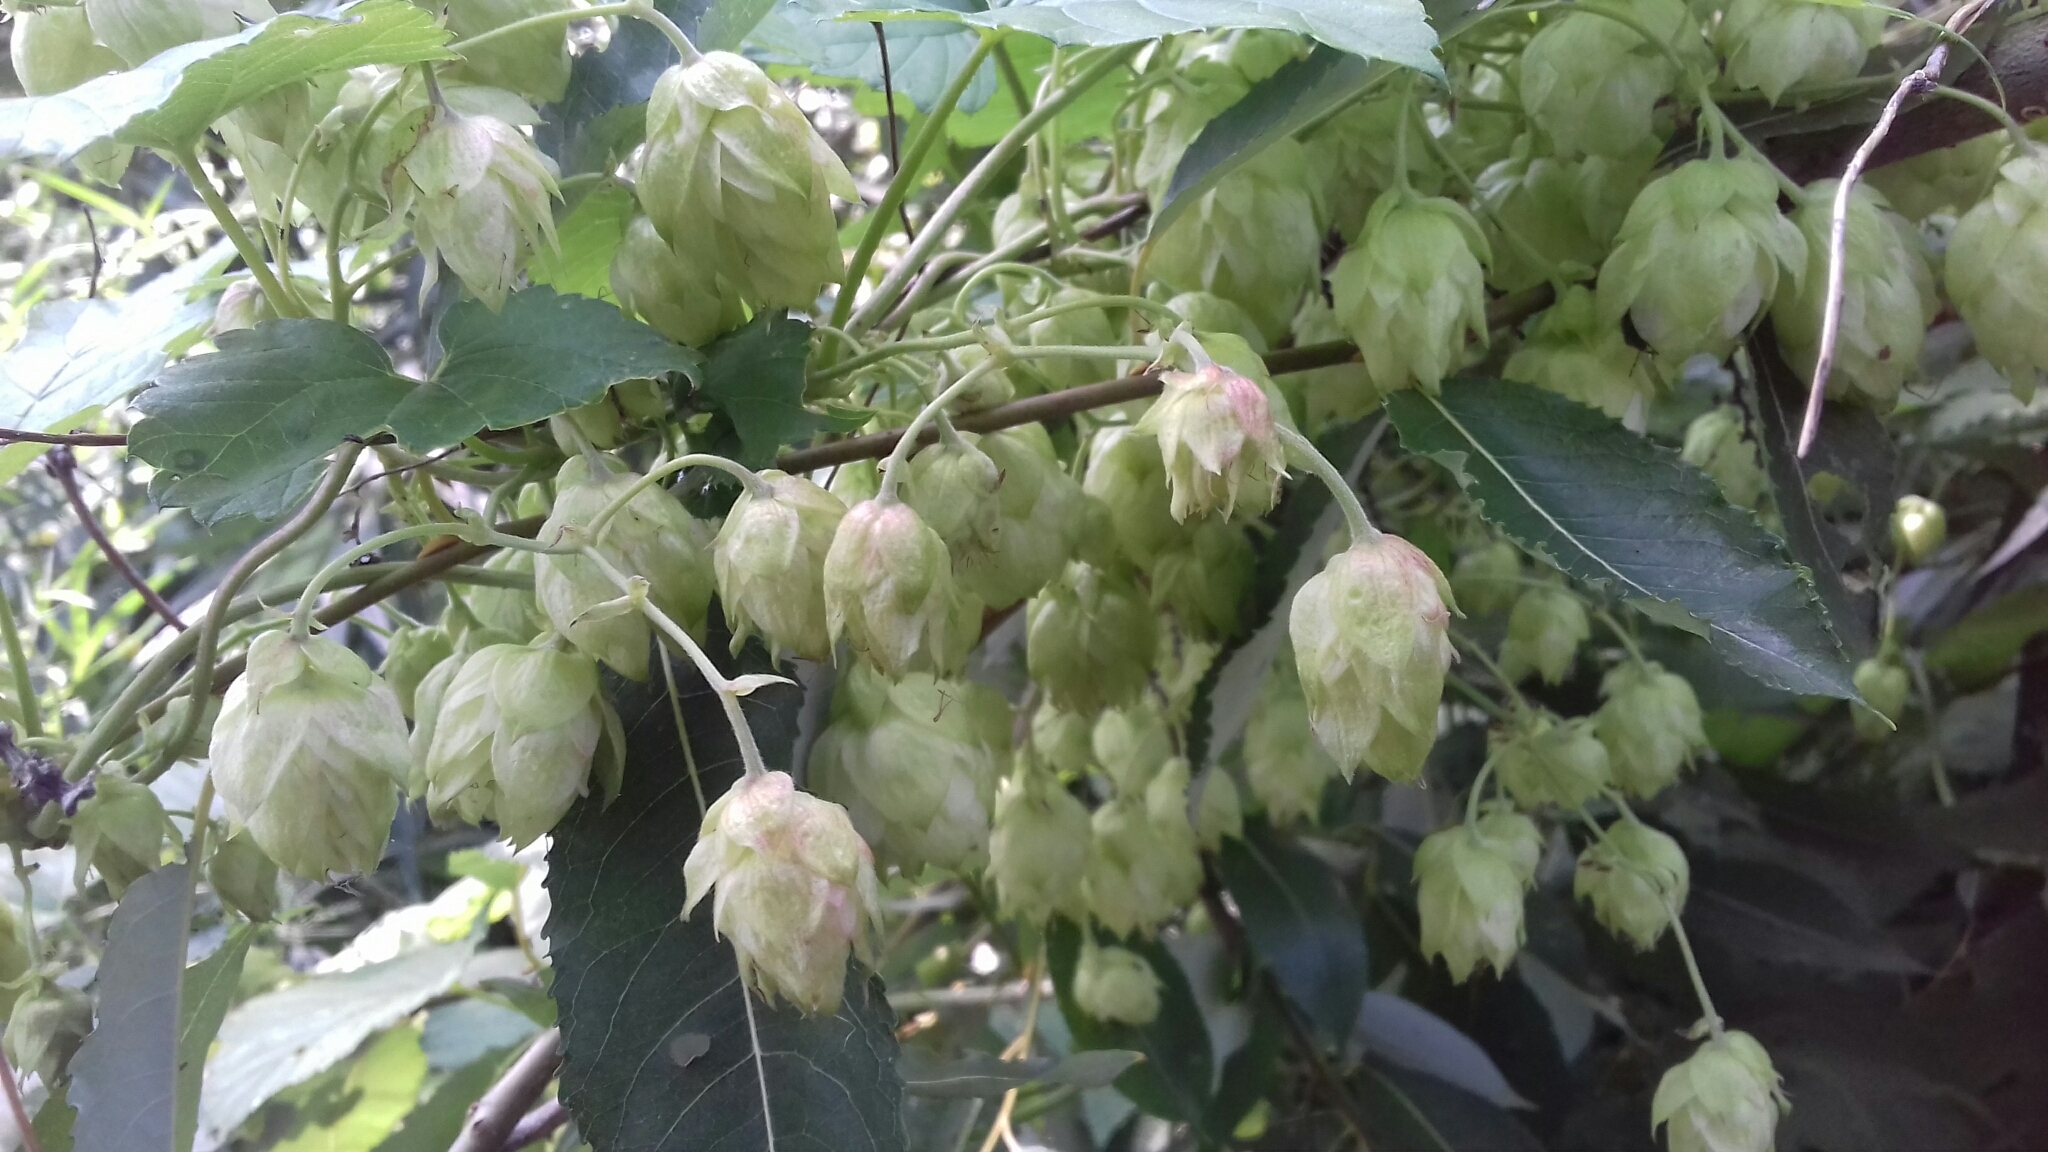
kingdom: Plantae
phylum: Tracheophyta
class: Magnoliopsida
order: Rosales
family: Cannabaceae
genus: Humulus
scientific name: Humulus lupulus
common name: Hop
